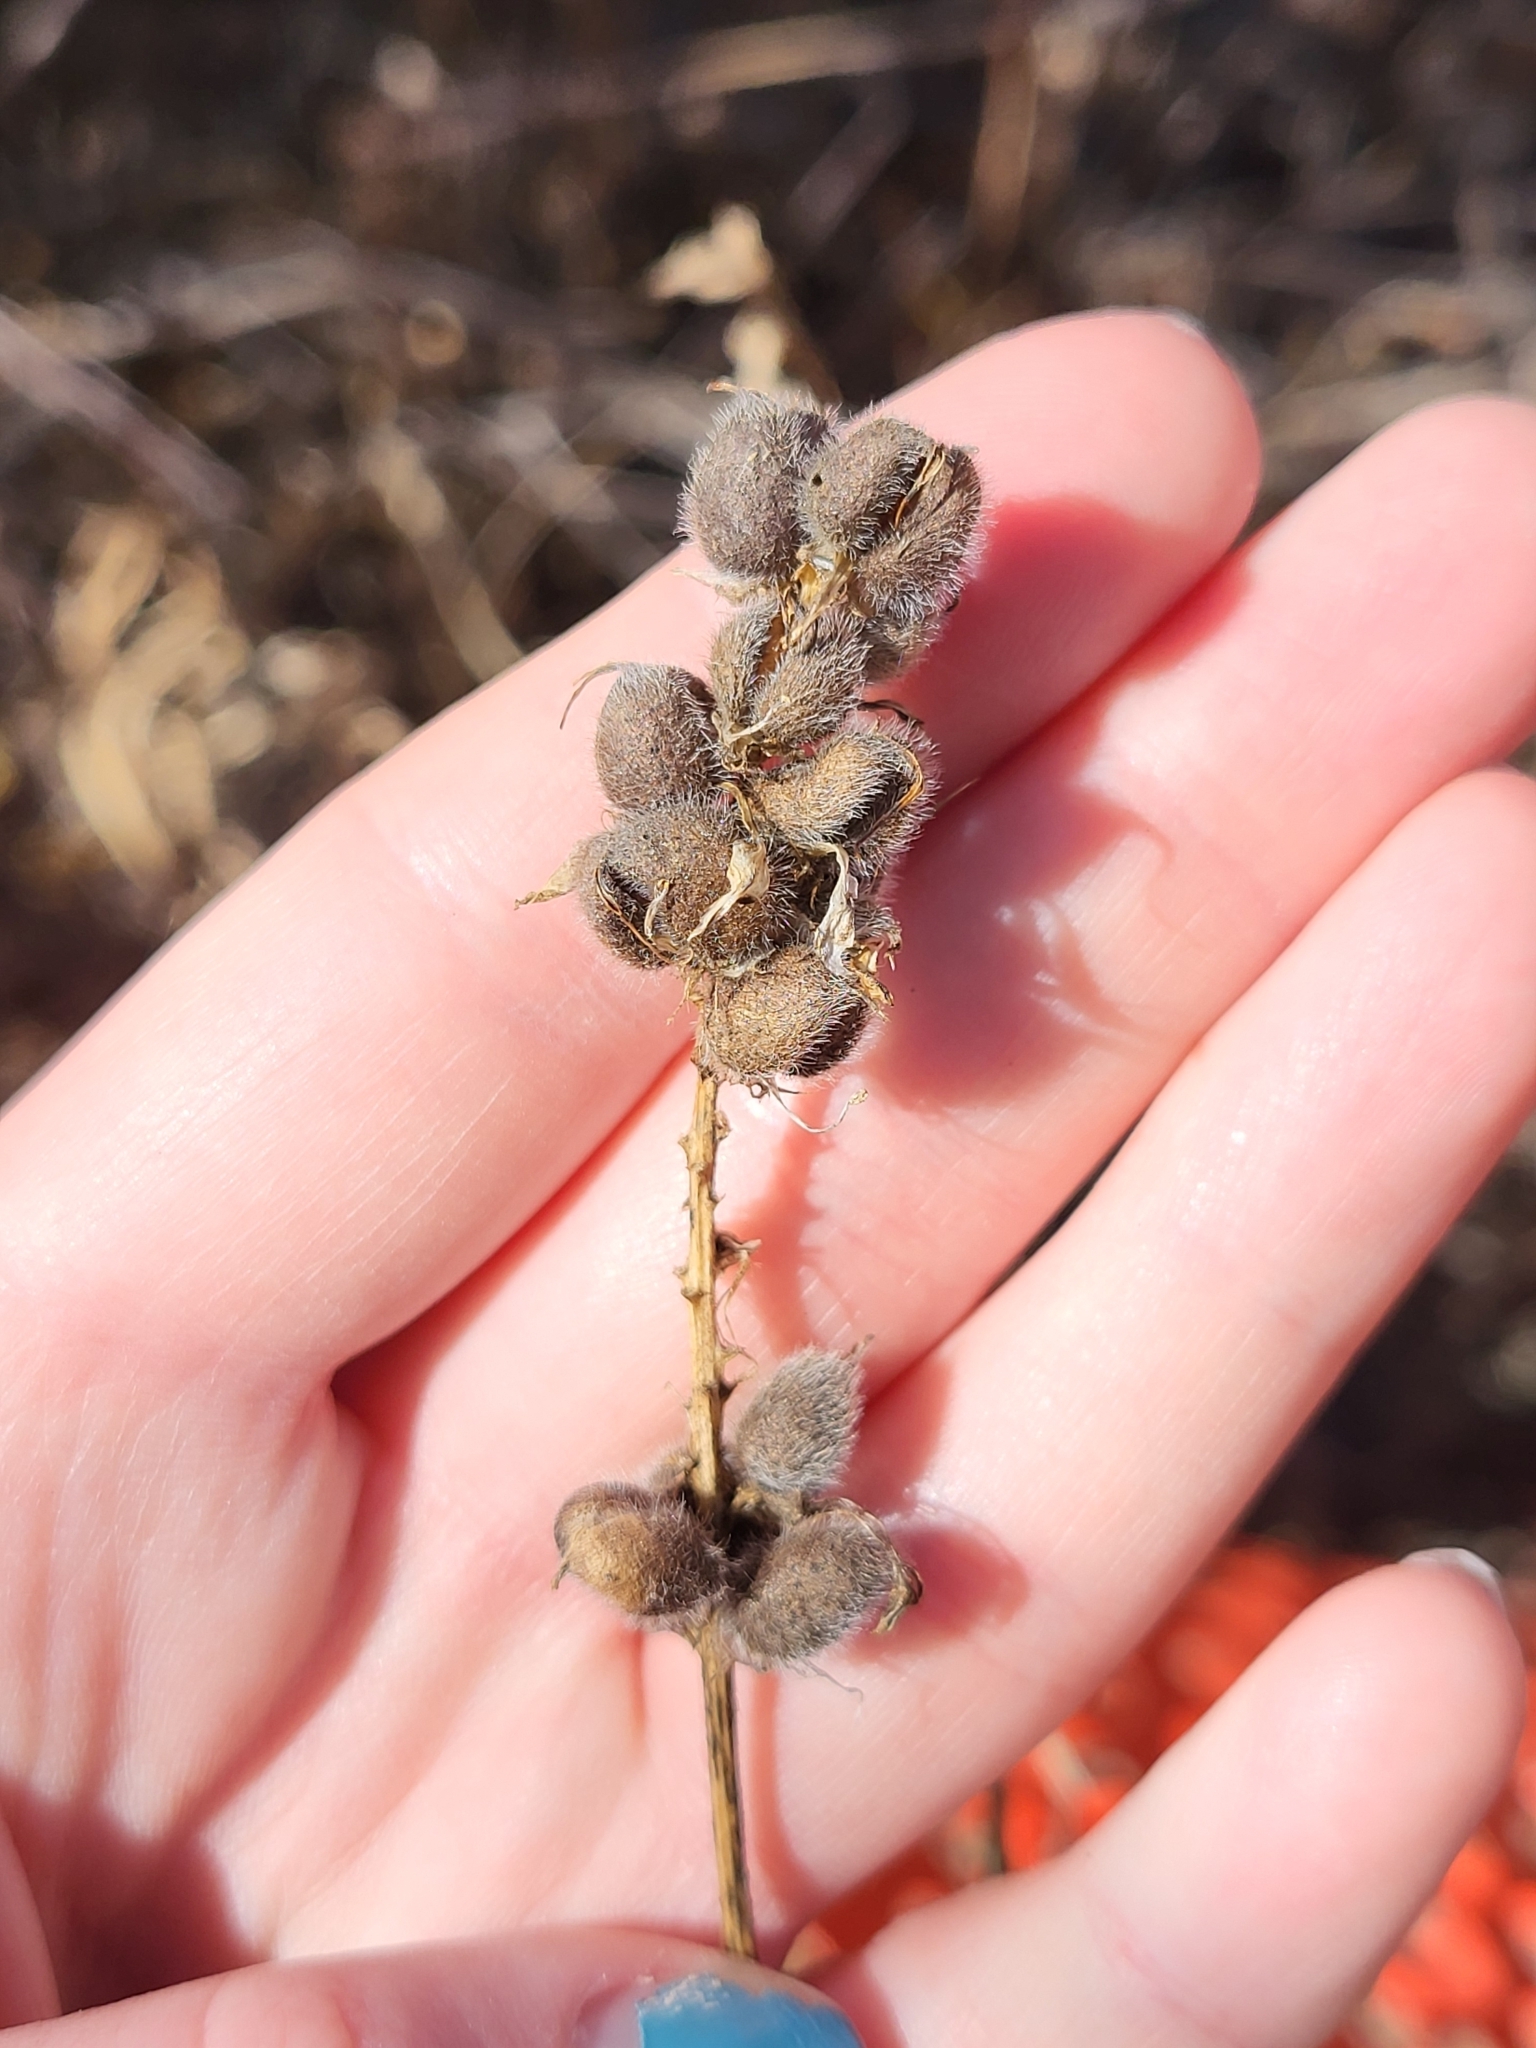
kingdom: Plantae
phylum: Tracheophyta
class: Magnoliopsida
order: Fabales
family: Fabaceae
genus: Astragalus
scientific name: Astragalus cicer
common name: Chick-pea milk-vetch
